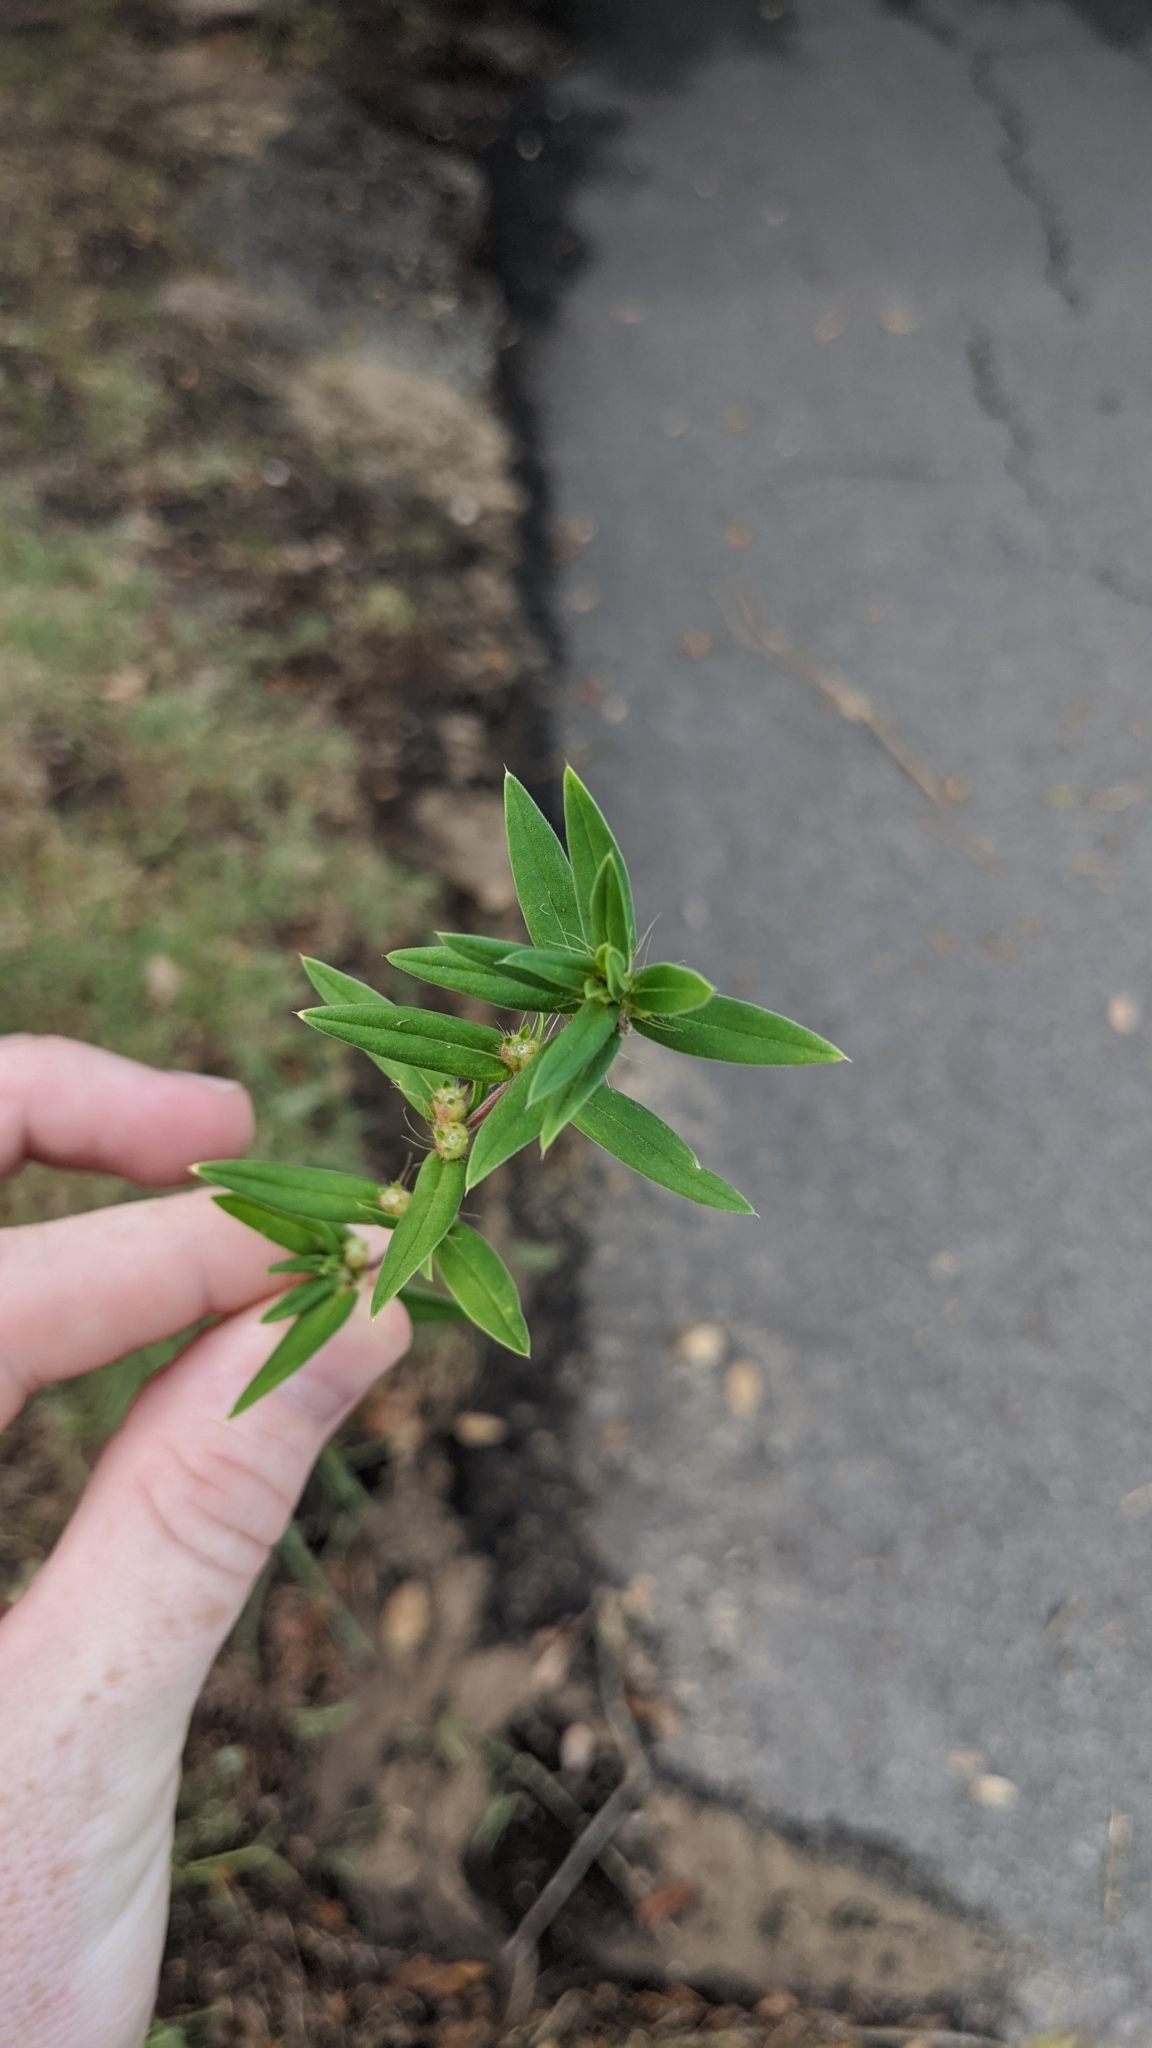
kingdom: Plantae
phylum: Tracheophyta
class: Magnoliopsida
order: Gentianales
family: Rubiaceae
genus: Hexasepalum
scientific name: Hexasepalum teres
